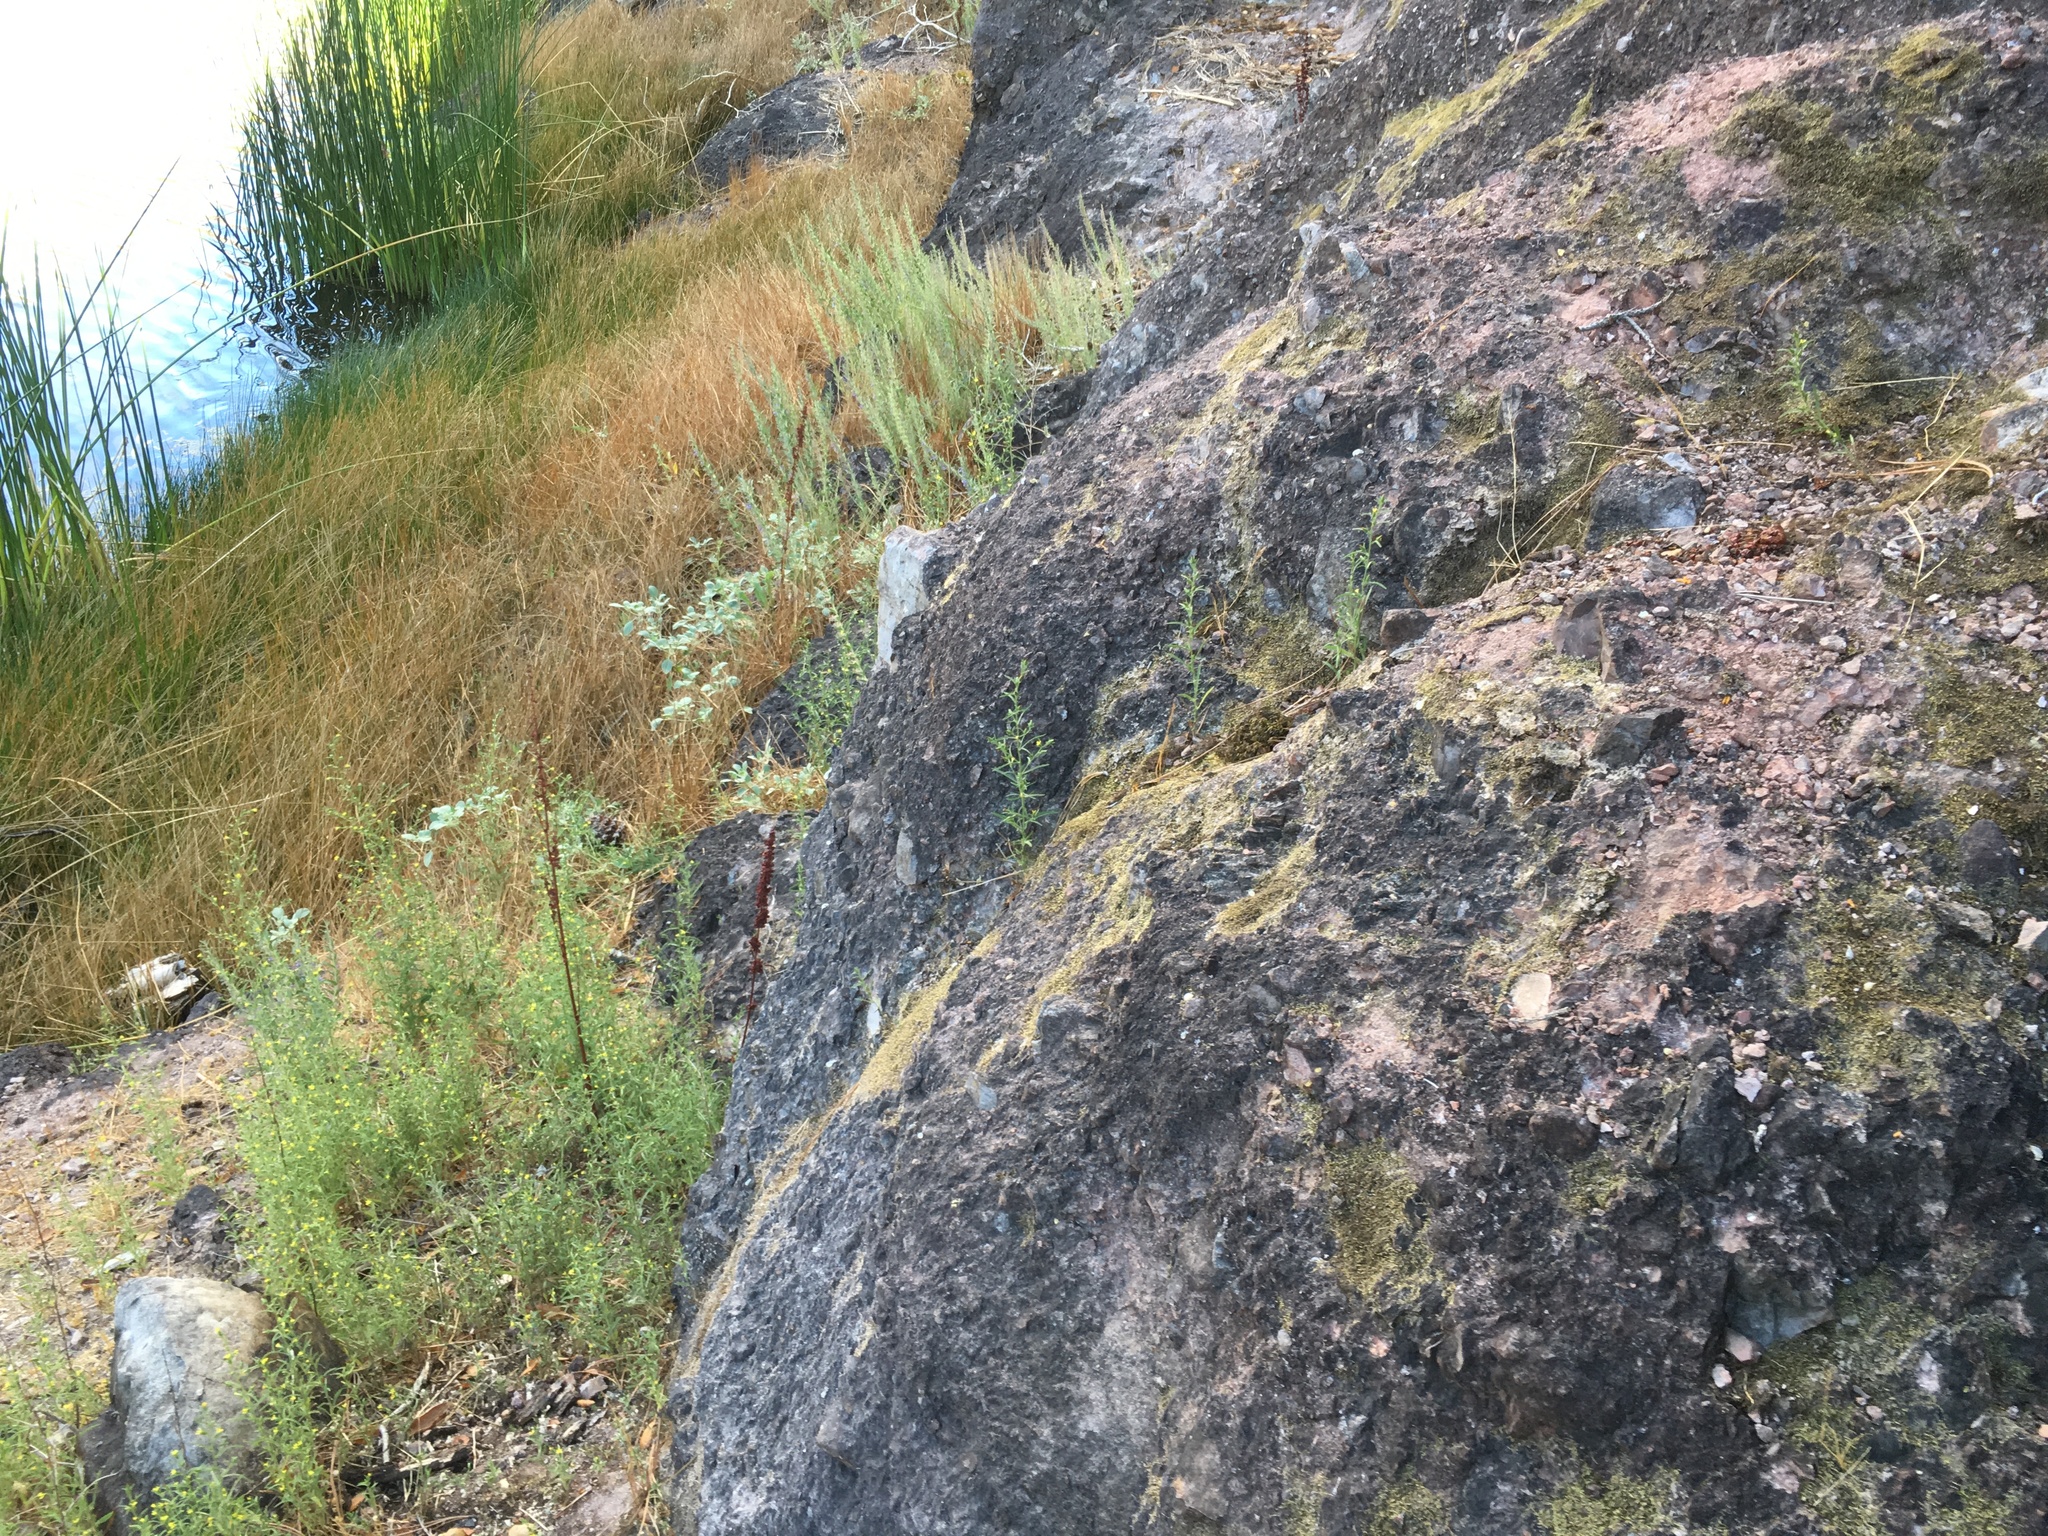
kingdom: Plantae
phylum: Tracheophyta
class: Magnoliopsida
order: Asterales
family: Asteraceae
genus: Dittrichia
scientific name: Dittrichia graveolens
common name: Stinking fleabane
